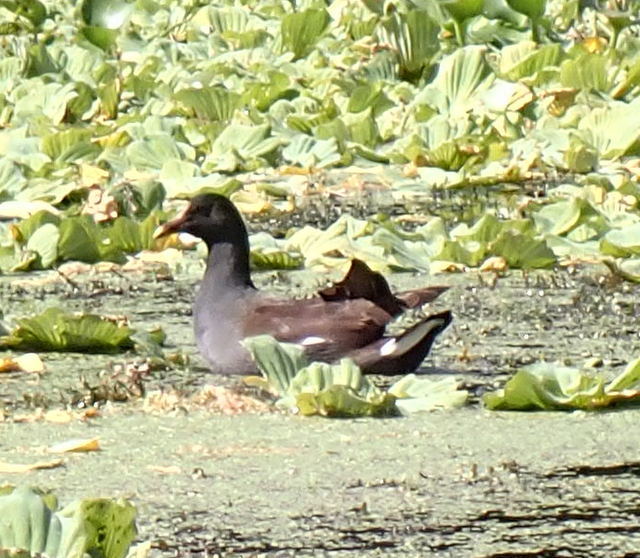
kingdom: Animalia
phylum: Chordata
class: Aves
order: Gruiformes
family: Rallidae
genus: Gallinula
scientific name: Gallinula chloropus
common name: Common moorhen
